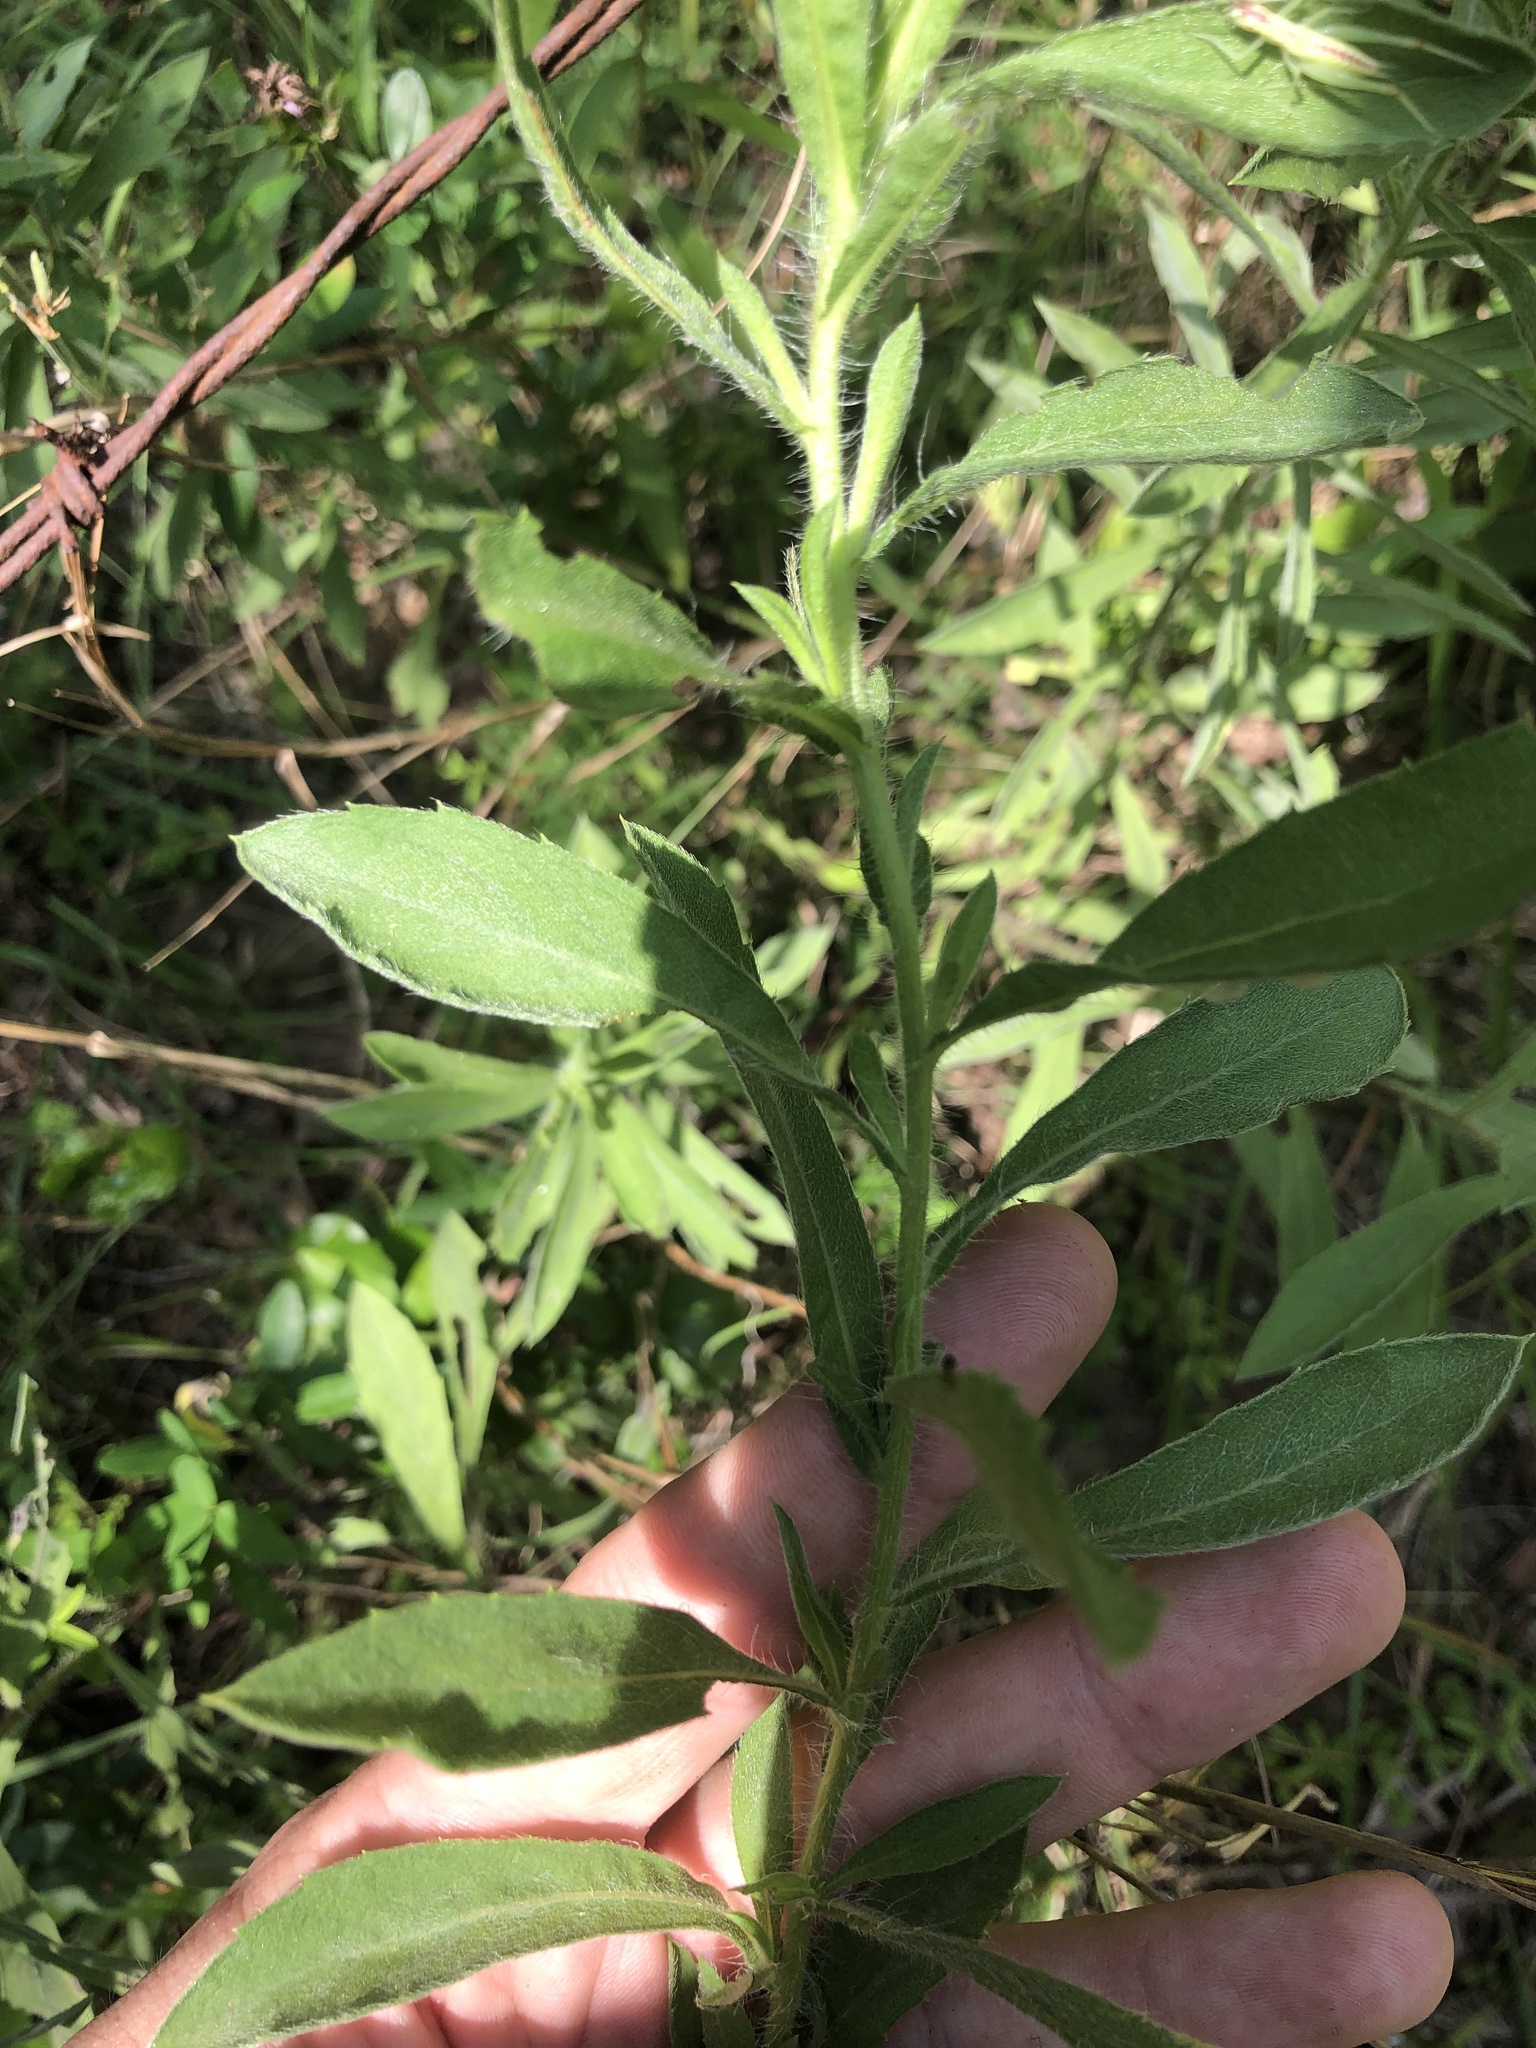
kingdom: Plantae
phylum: Tracheophyta
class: Magnoliopsida
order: Asterales
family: Asteraceae
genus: Heterotheca
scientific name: Heterotheca camporum
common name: Prairie golden-aster
